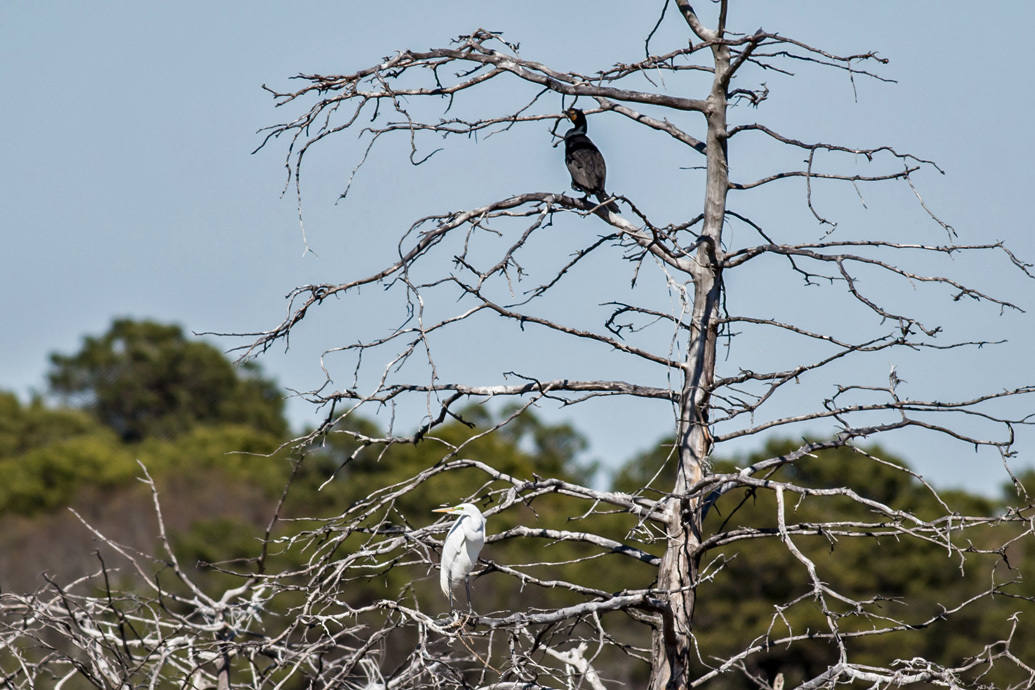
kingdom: Animalia
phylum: Chordata
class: Aves
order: Suliformes
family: Phalacrocoracidae
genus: Phalacrocorax
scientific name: Phalacrocorax auritus
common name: Double-crested cormorant
